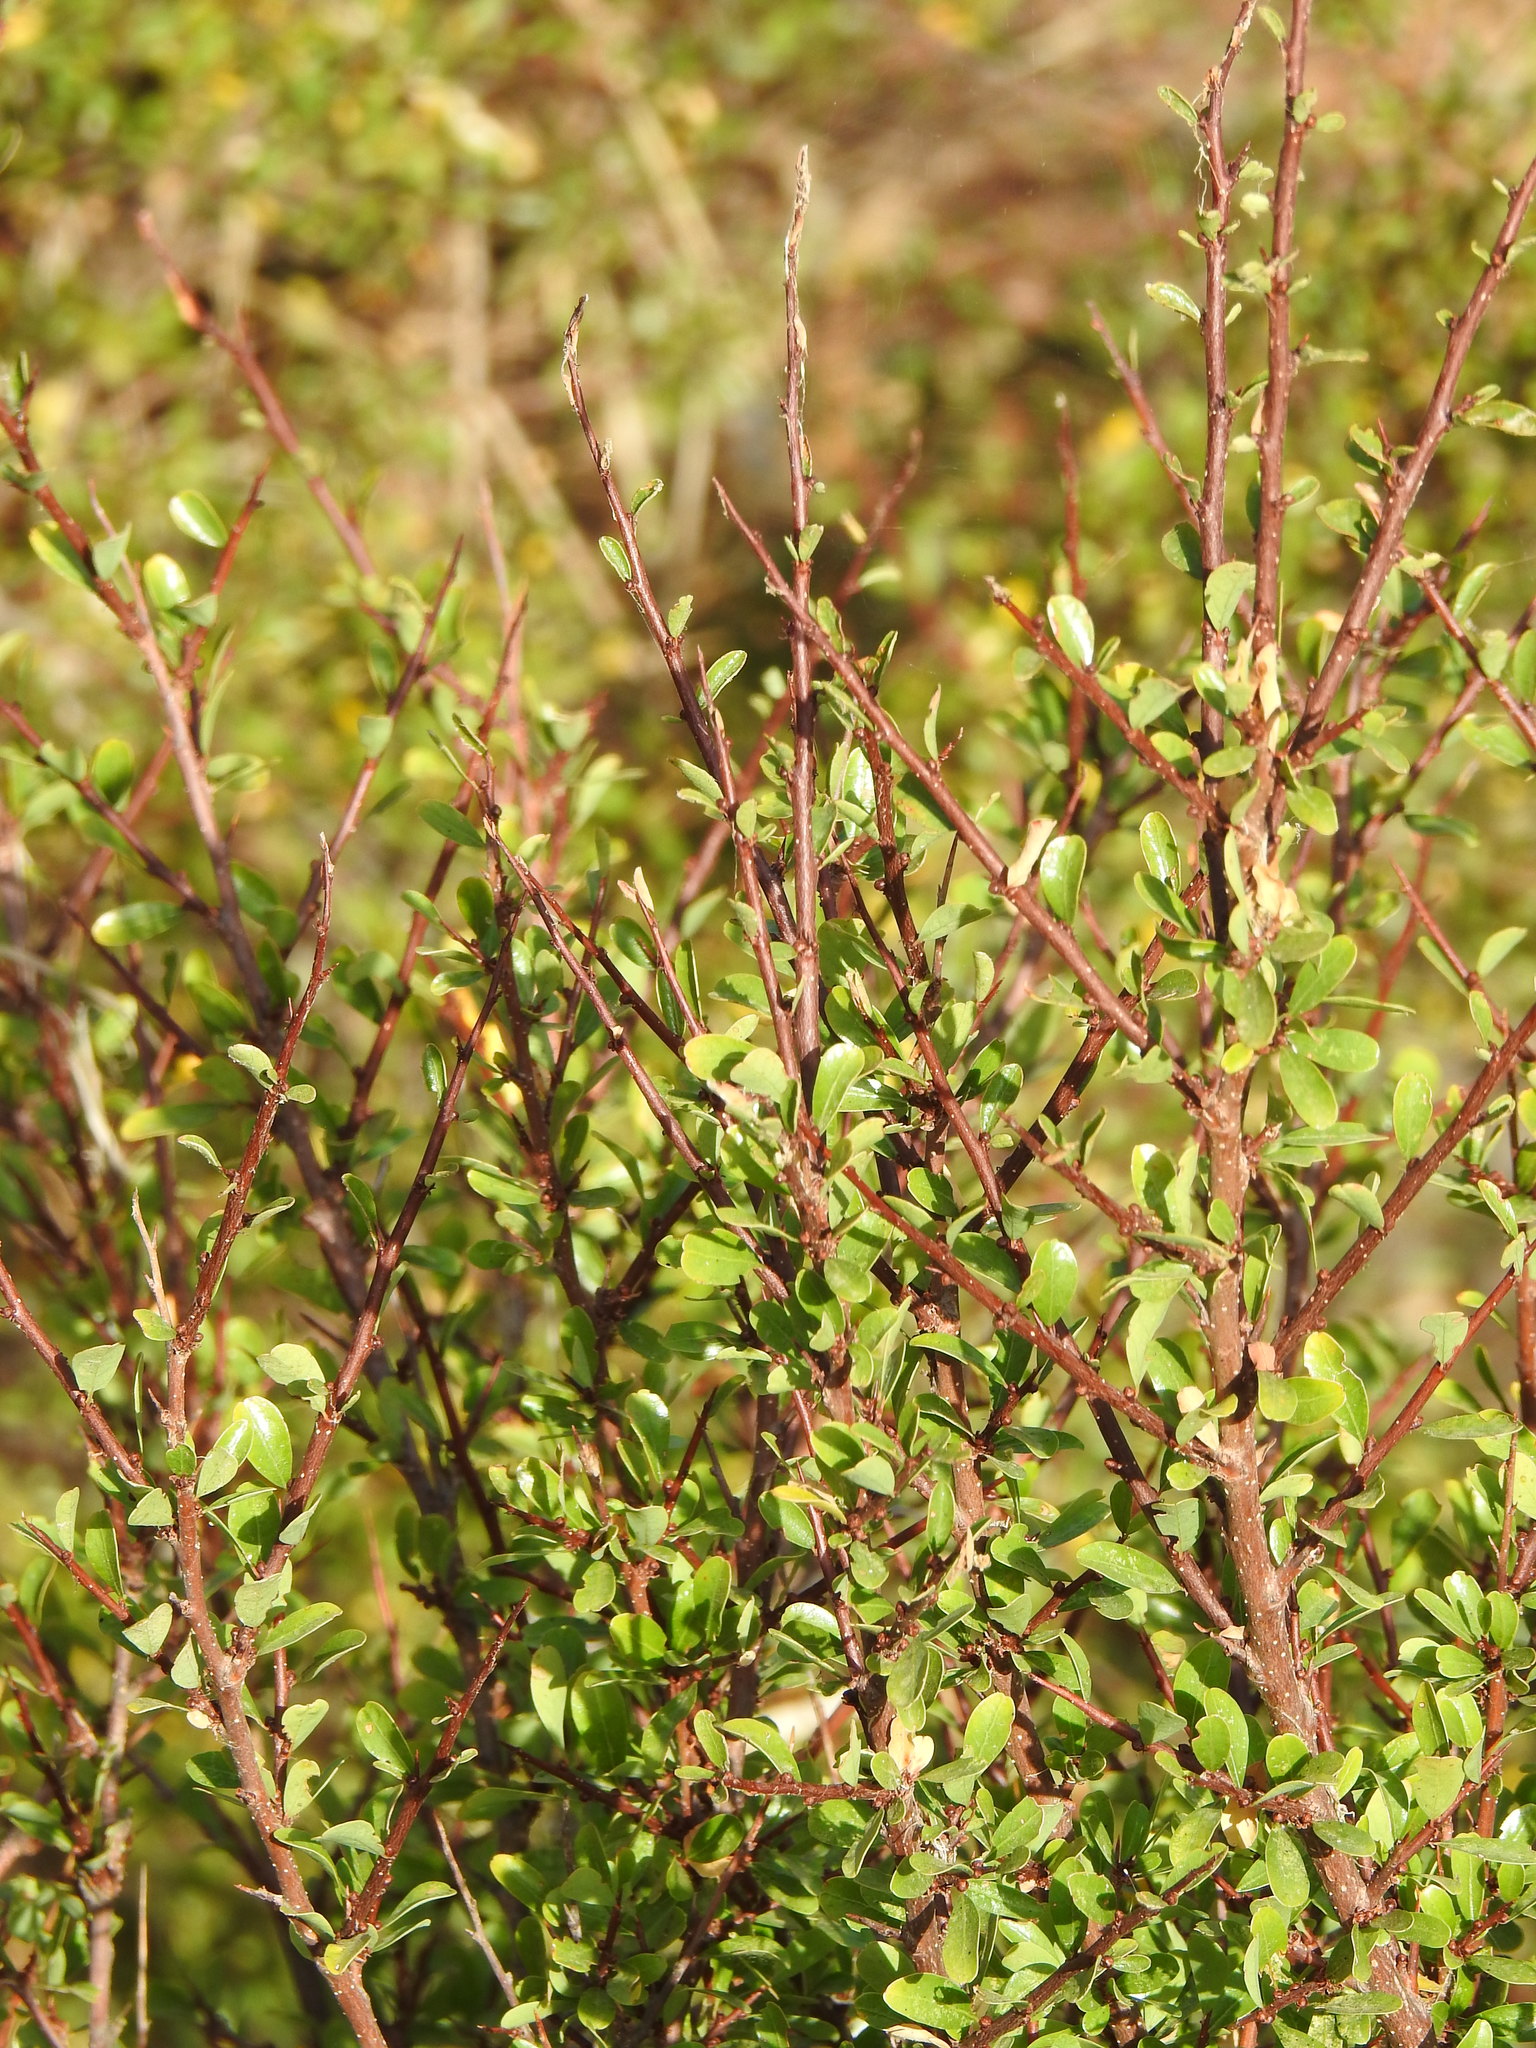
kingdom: Plantae
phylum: Tracheophyta
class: Magnoliopsida
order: Malpighiales
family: Phyllanthaceae
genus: Flueggea
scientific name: Flueggea tinctoria
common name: Tamujo
